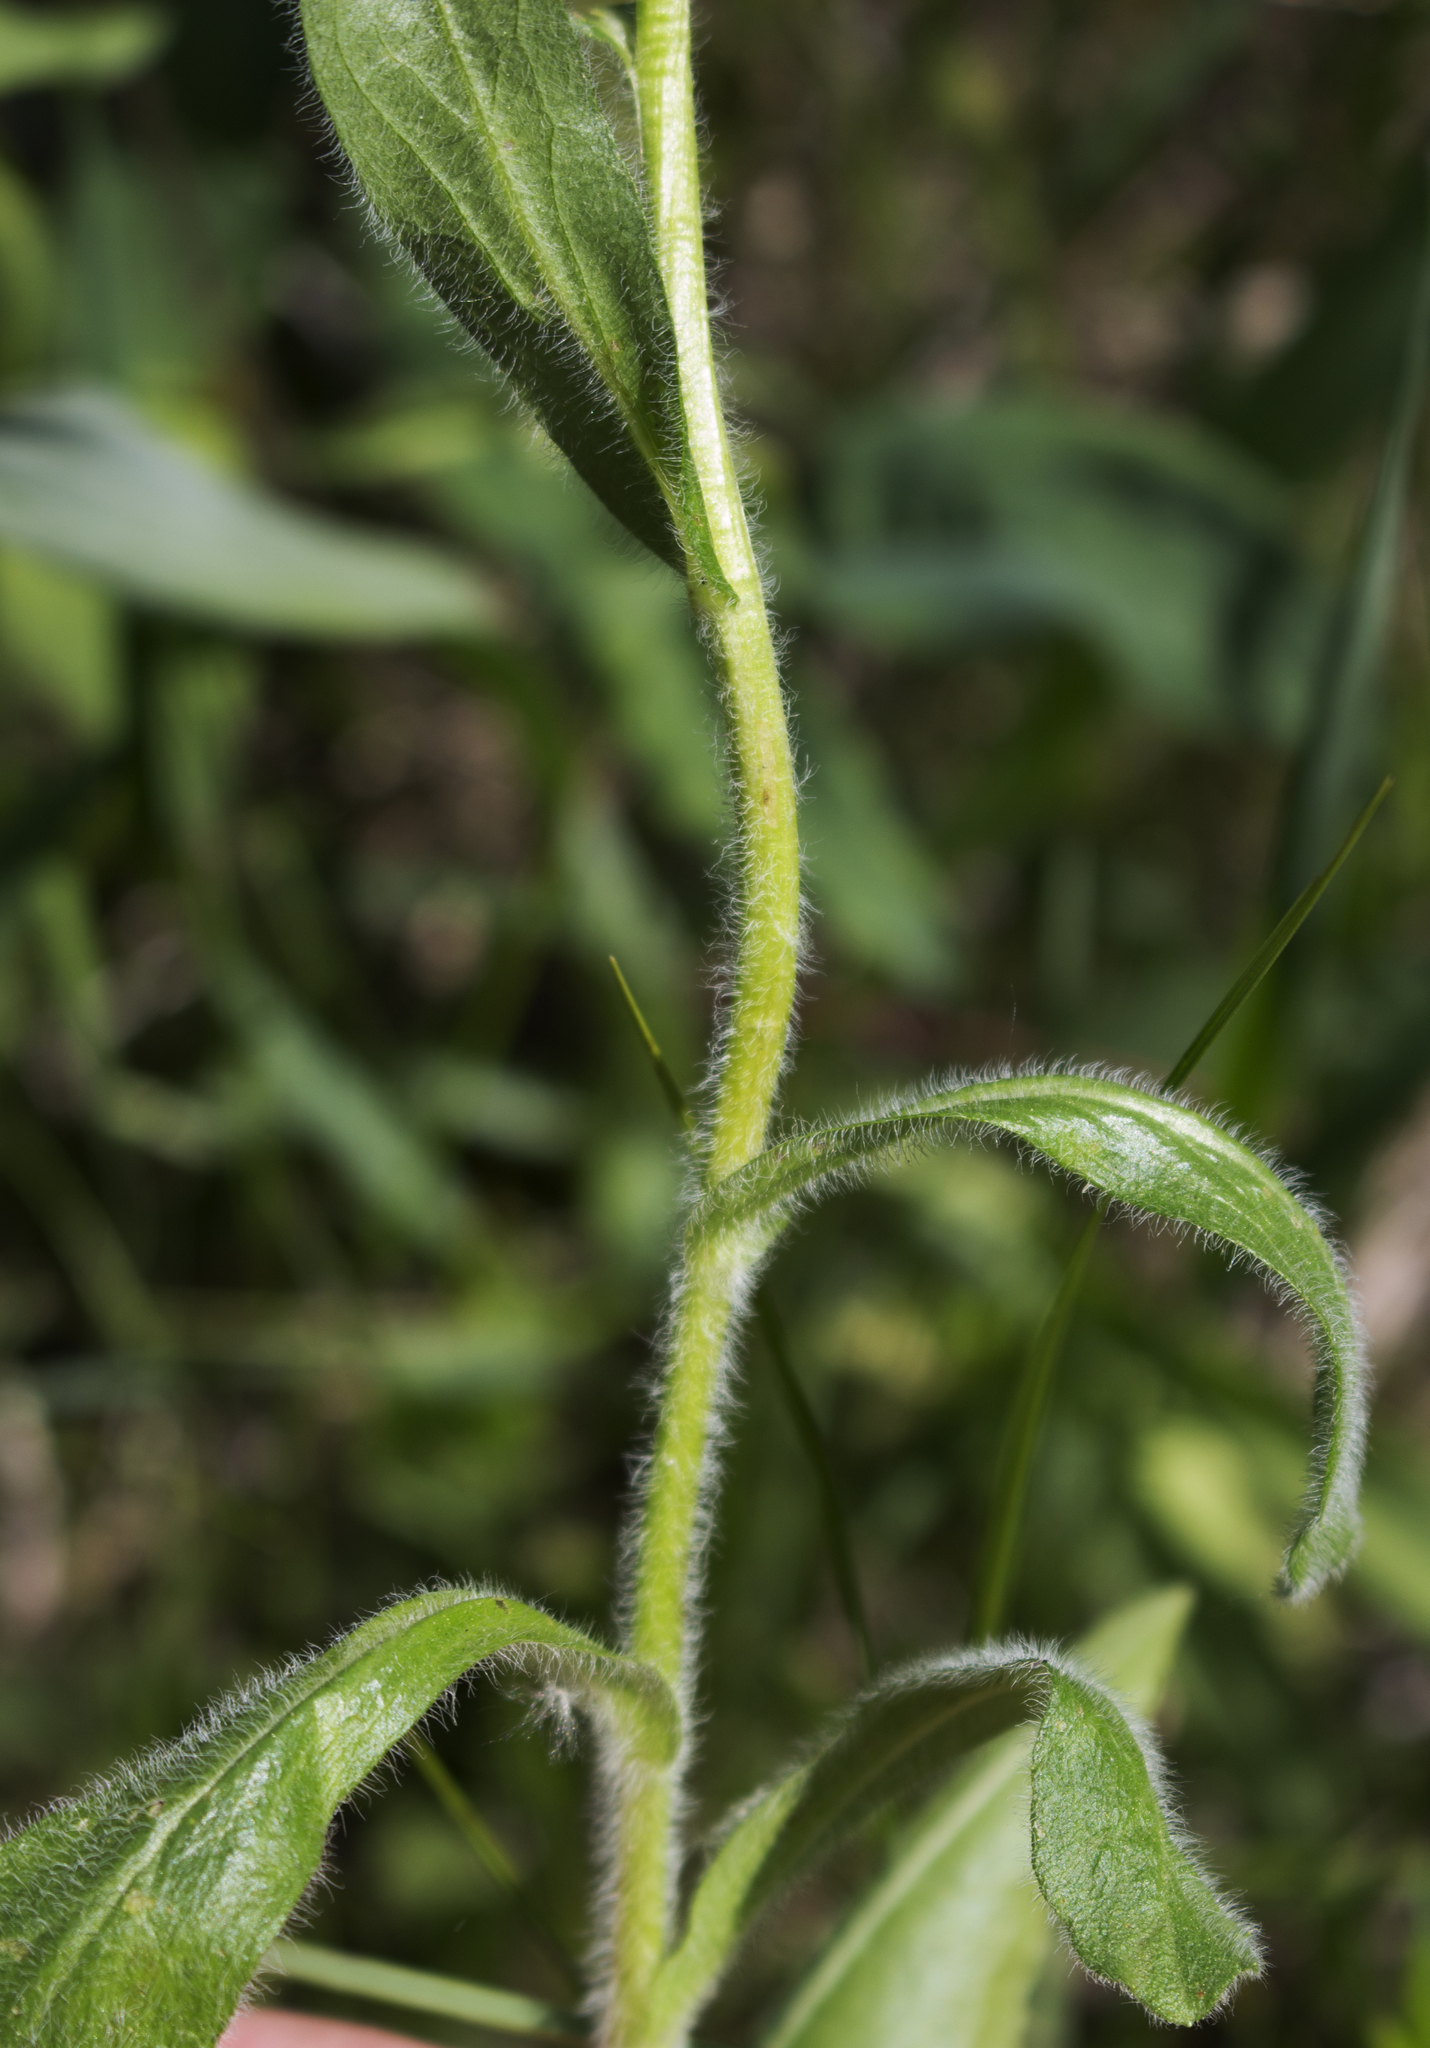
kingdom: Plantae
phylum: Tracheophyta
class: Magnoliopsida
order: Asterales
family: Asteraceae
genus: Erigeron
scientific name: Erigeron pulchellus
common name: Hairy fleabane
